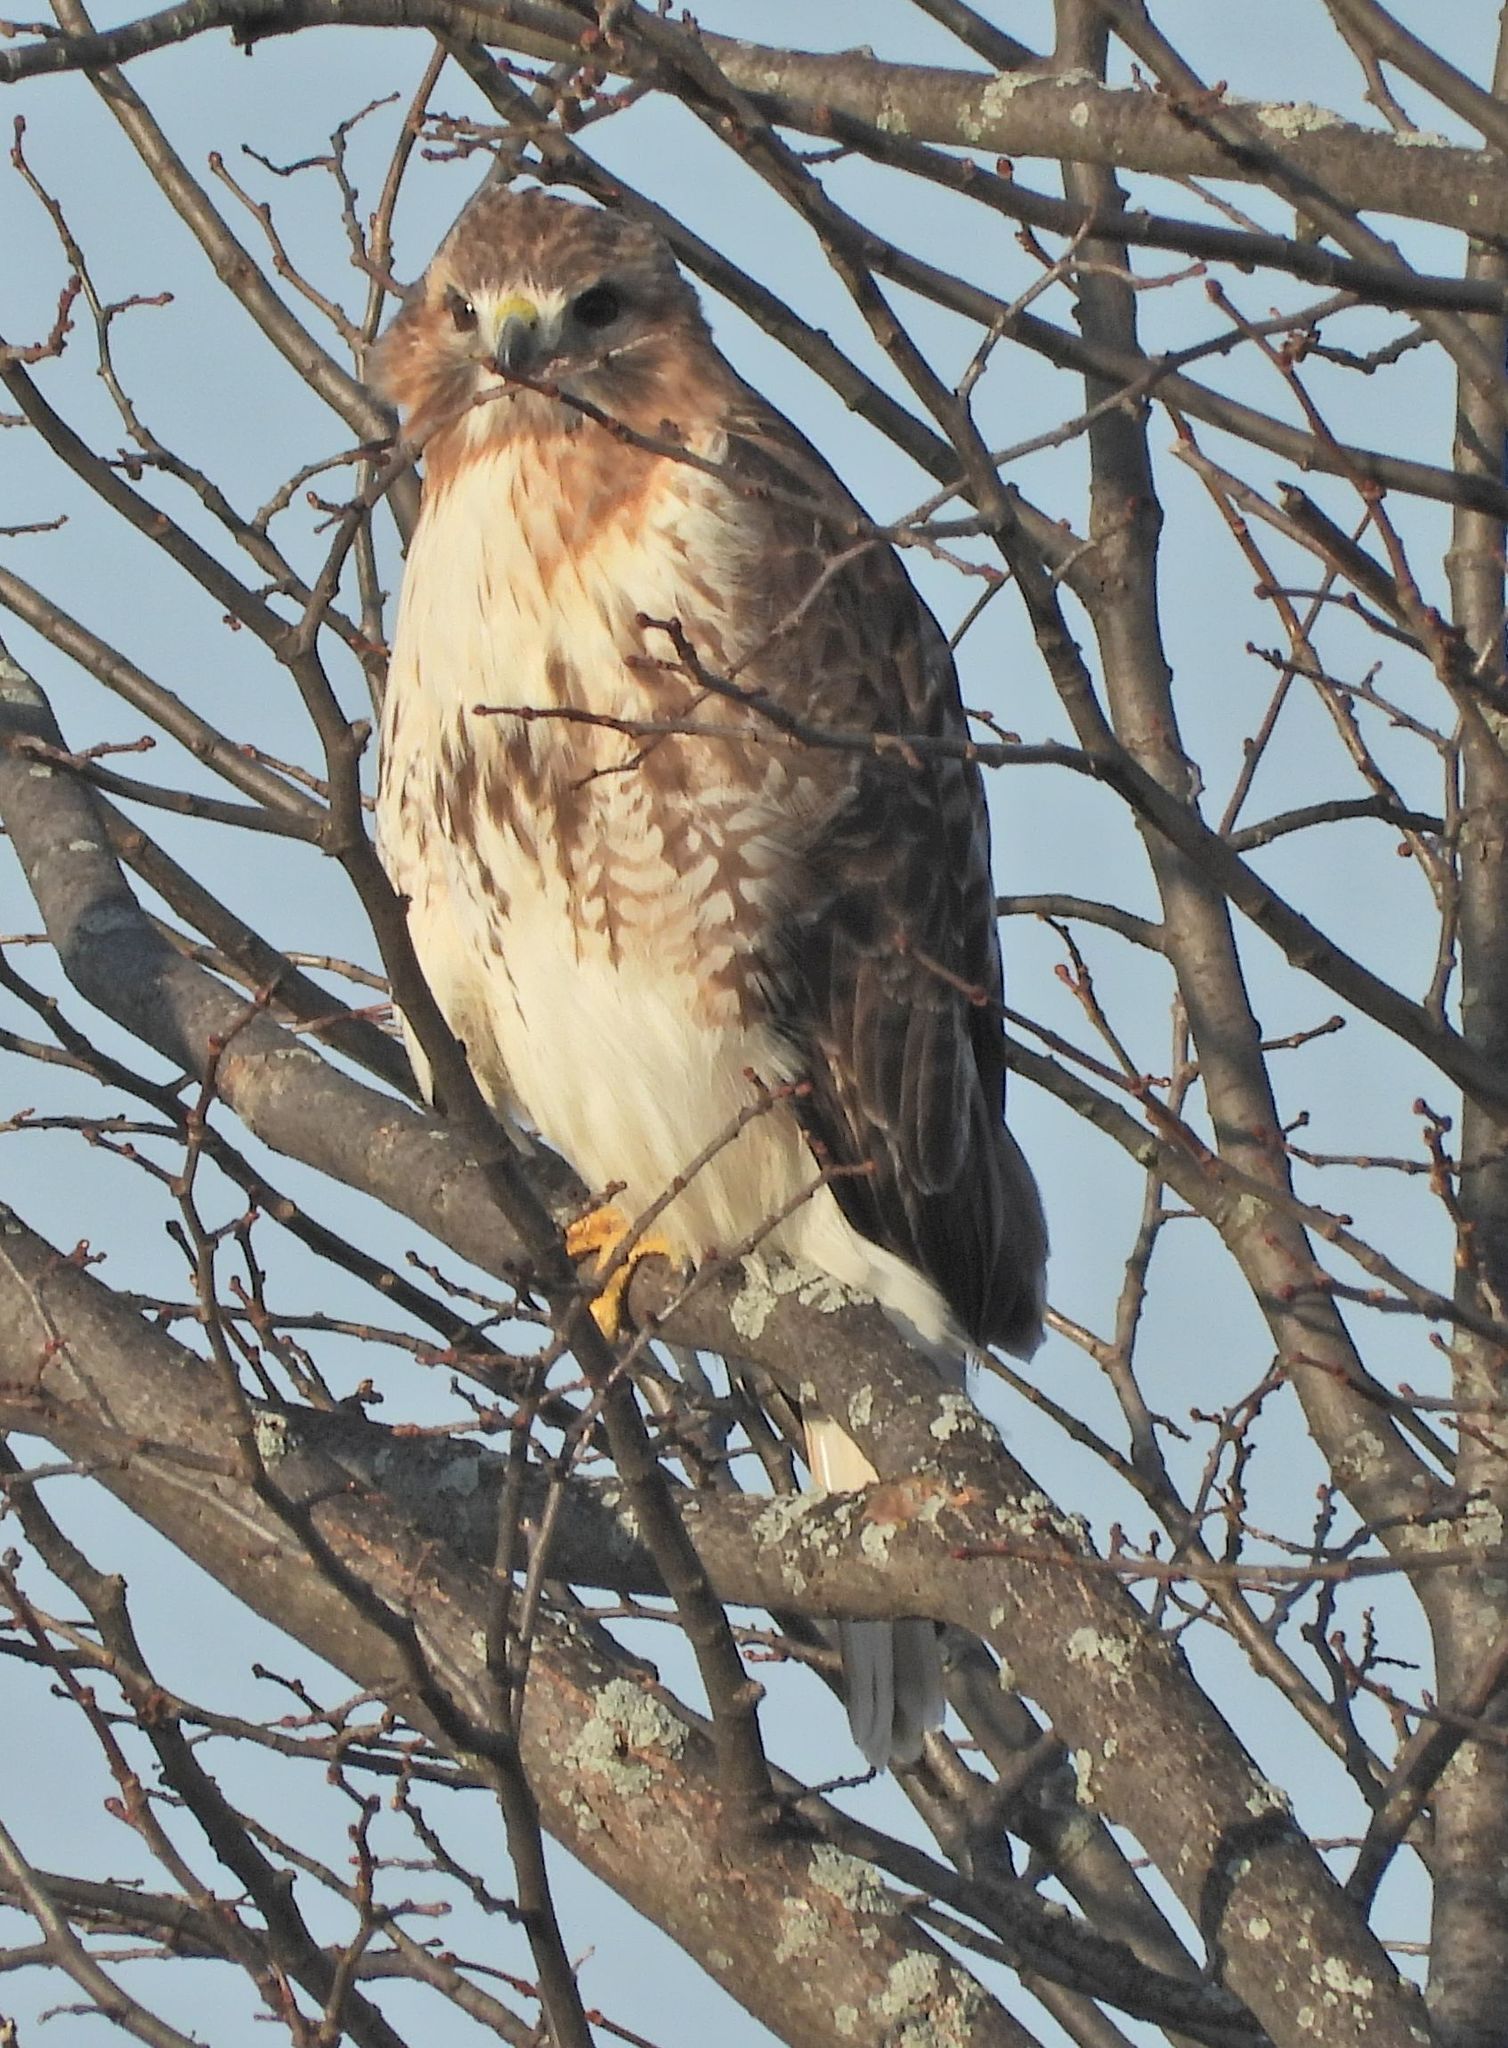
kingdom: Animalia
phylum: Chordata
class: Aves
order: Accipitriformes
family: Accipitridae
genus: Buteo
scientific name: Buteo jamaicensis
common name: Red-tailed hawk
